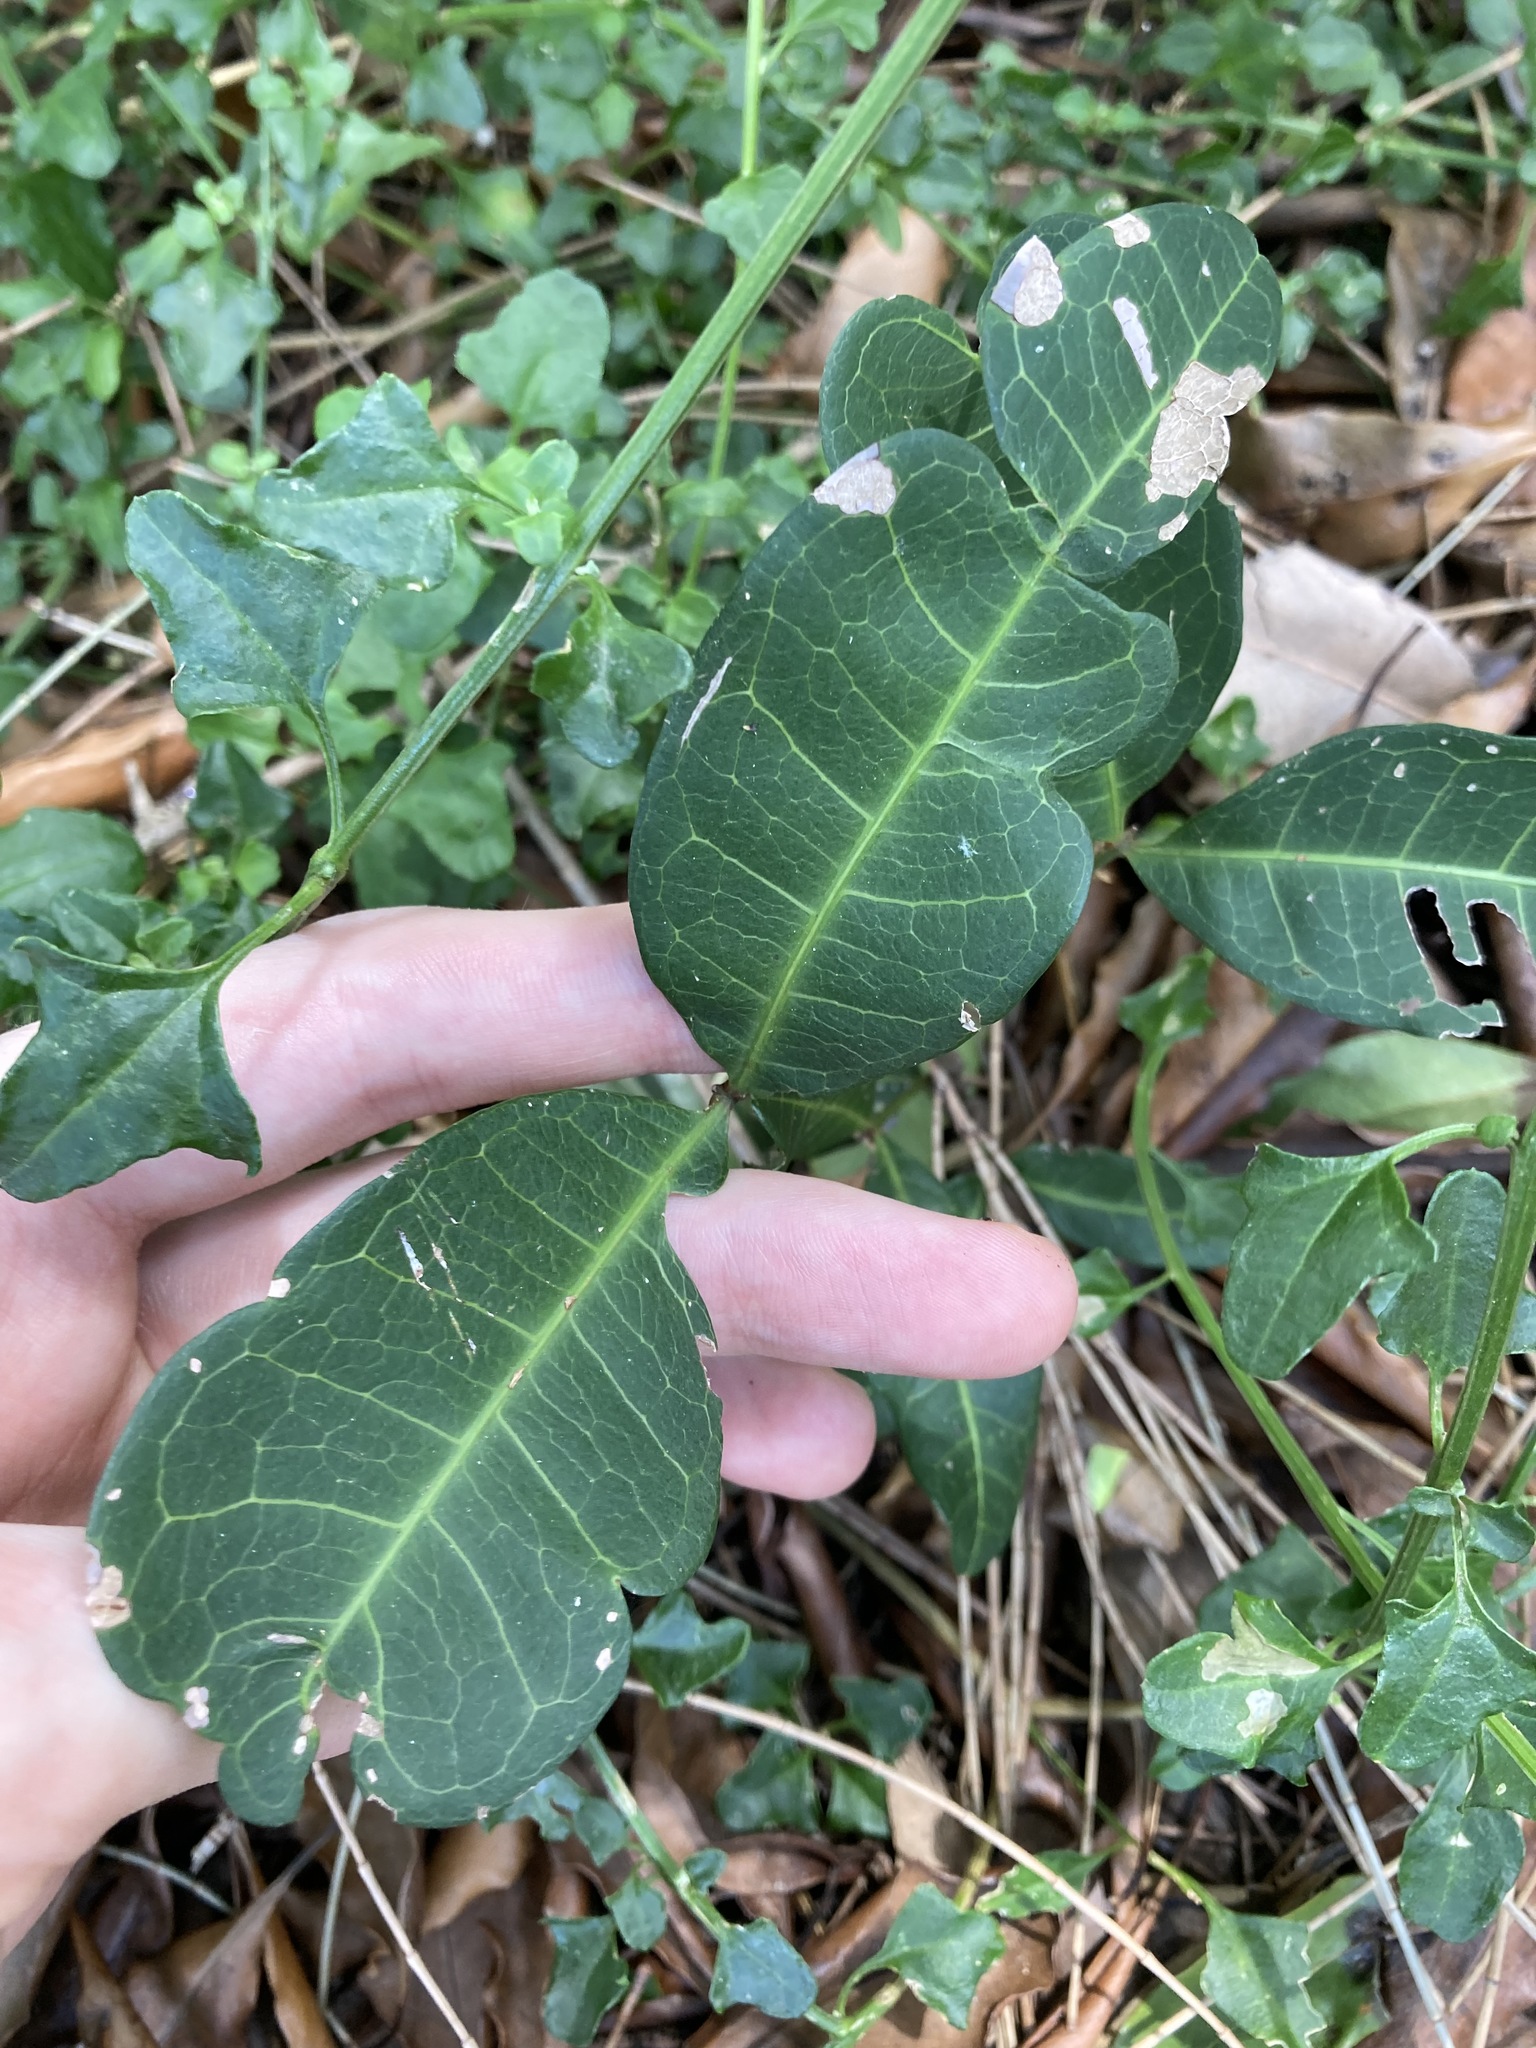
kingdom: Plantae
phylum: Tracheophyta
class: Magnoliopsida
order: Sapindales
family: Sapindaceae
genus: Cupaniopsis
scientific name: Cupaniopsis anacardioides
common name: Carrotwood
